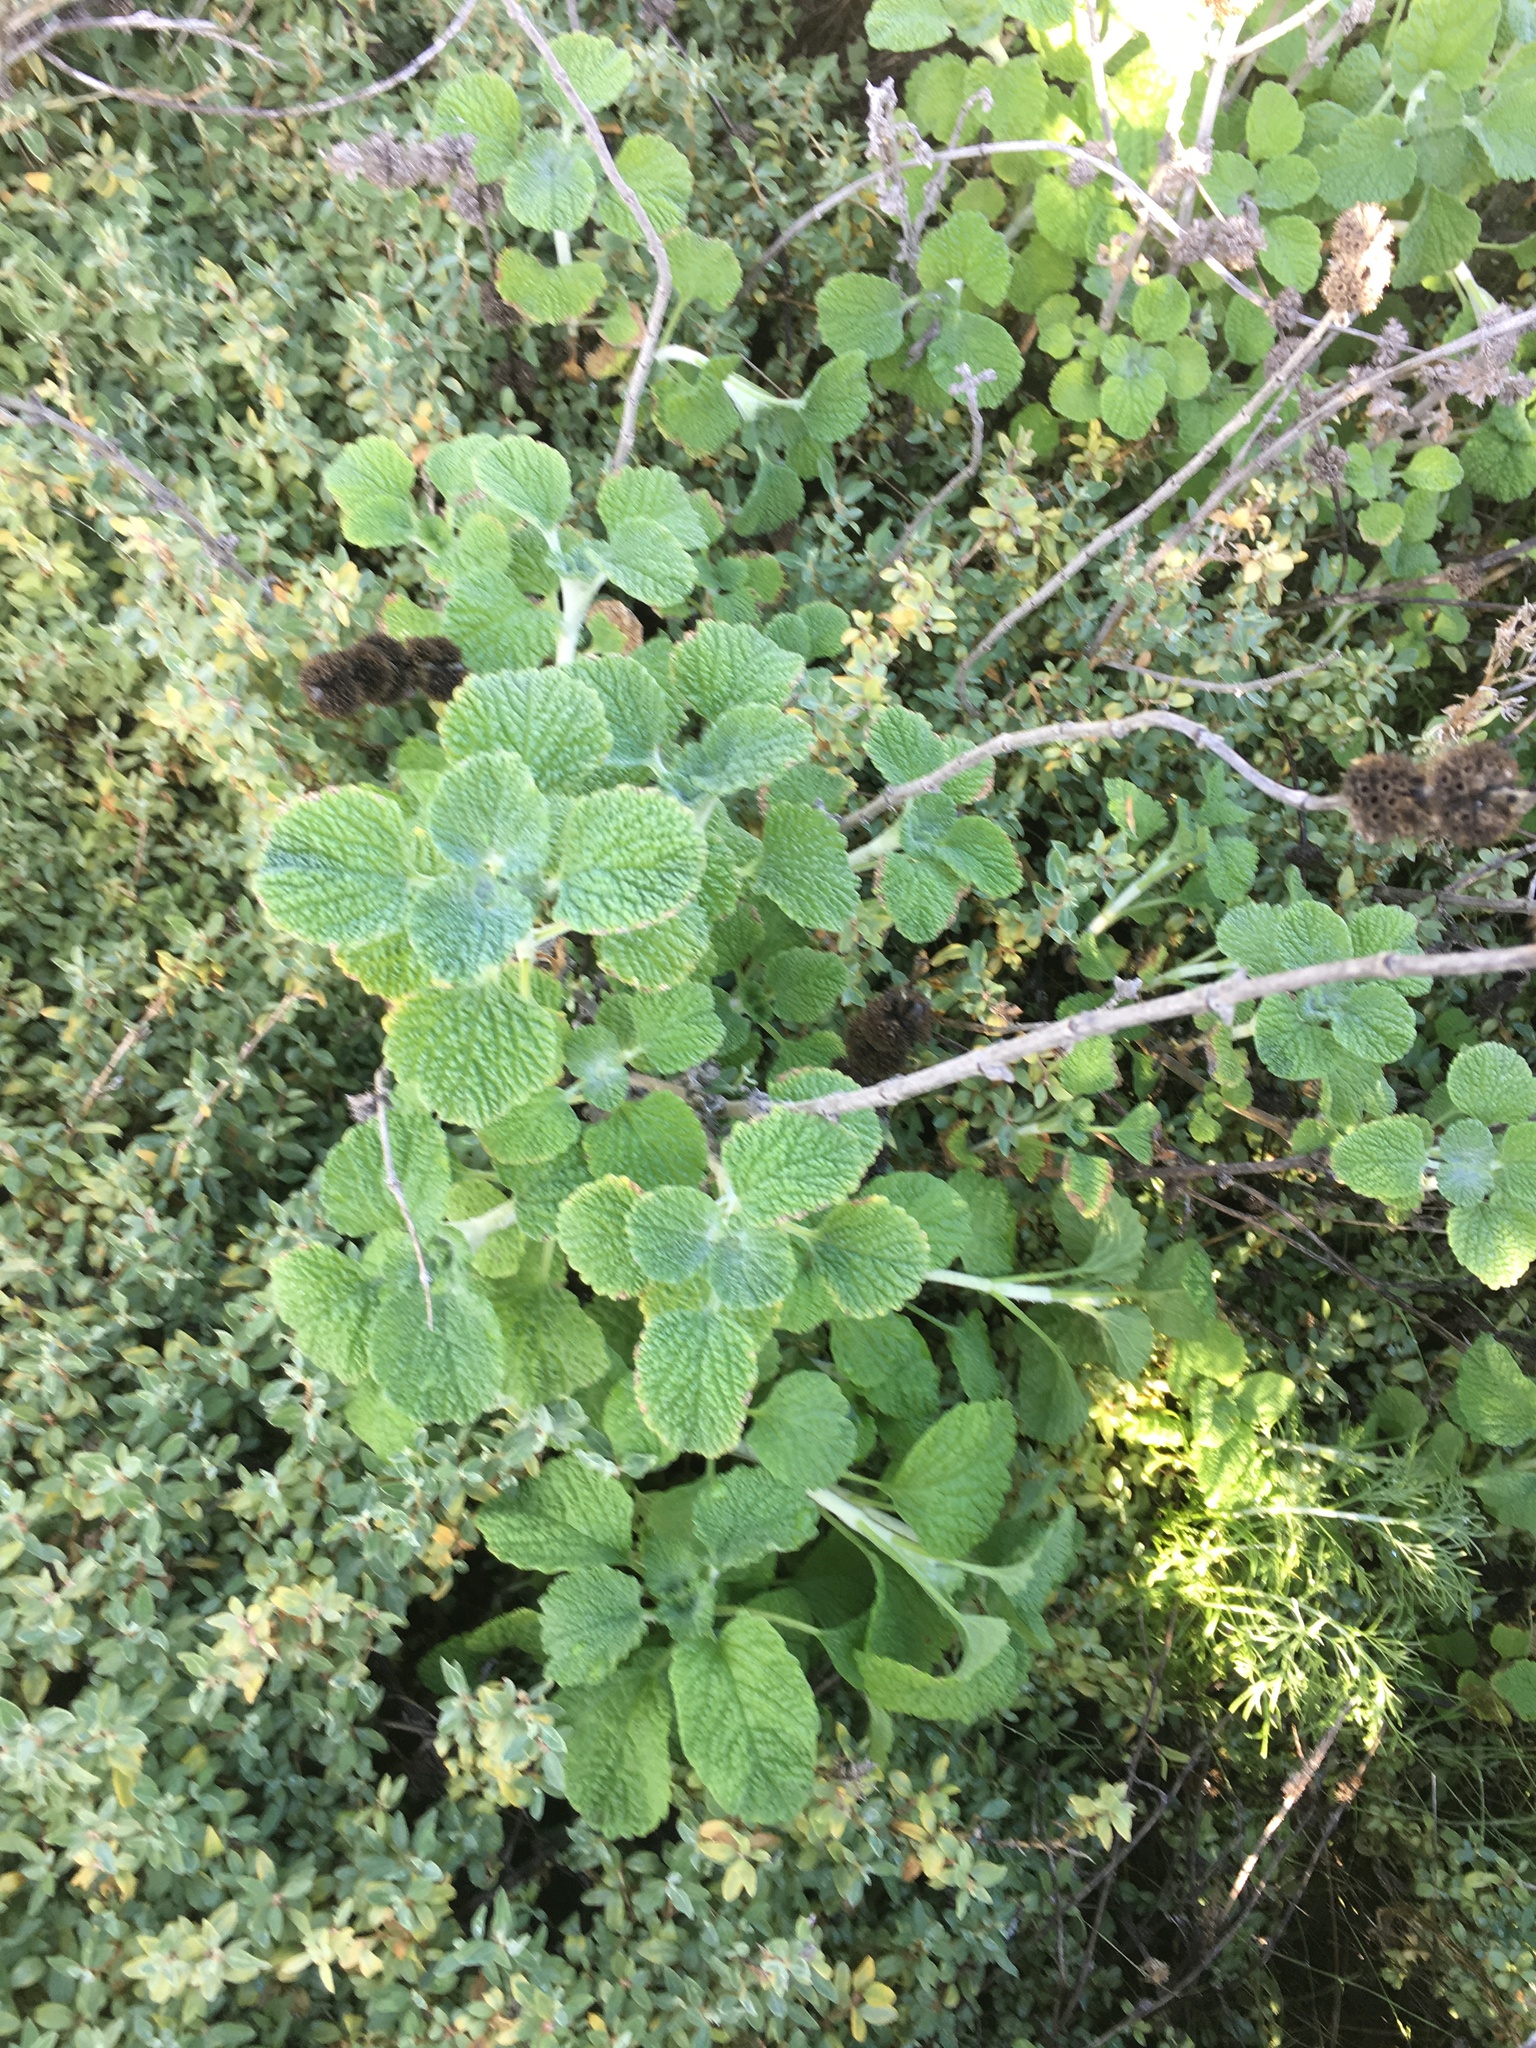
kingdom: Plantae
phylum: Tracheophyta
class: Magnoliopsida
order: Lamiales
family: Lamiaceae
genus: Marrubium
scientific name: Marrubium vulgare
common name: Horehound
